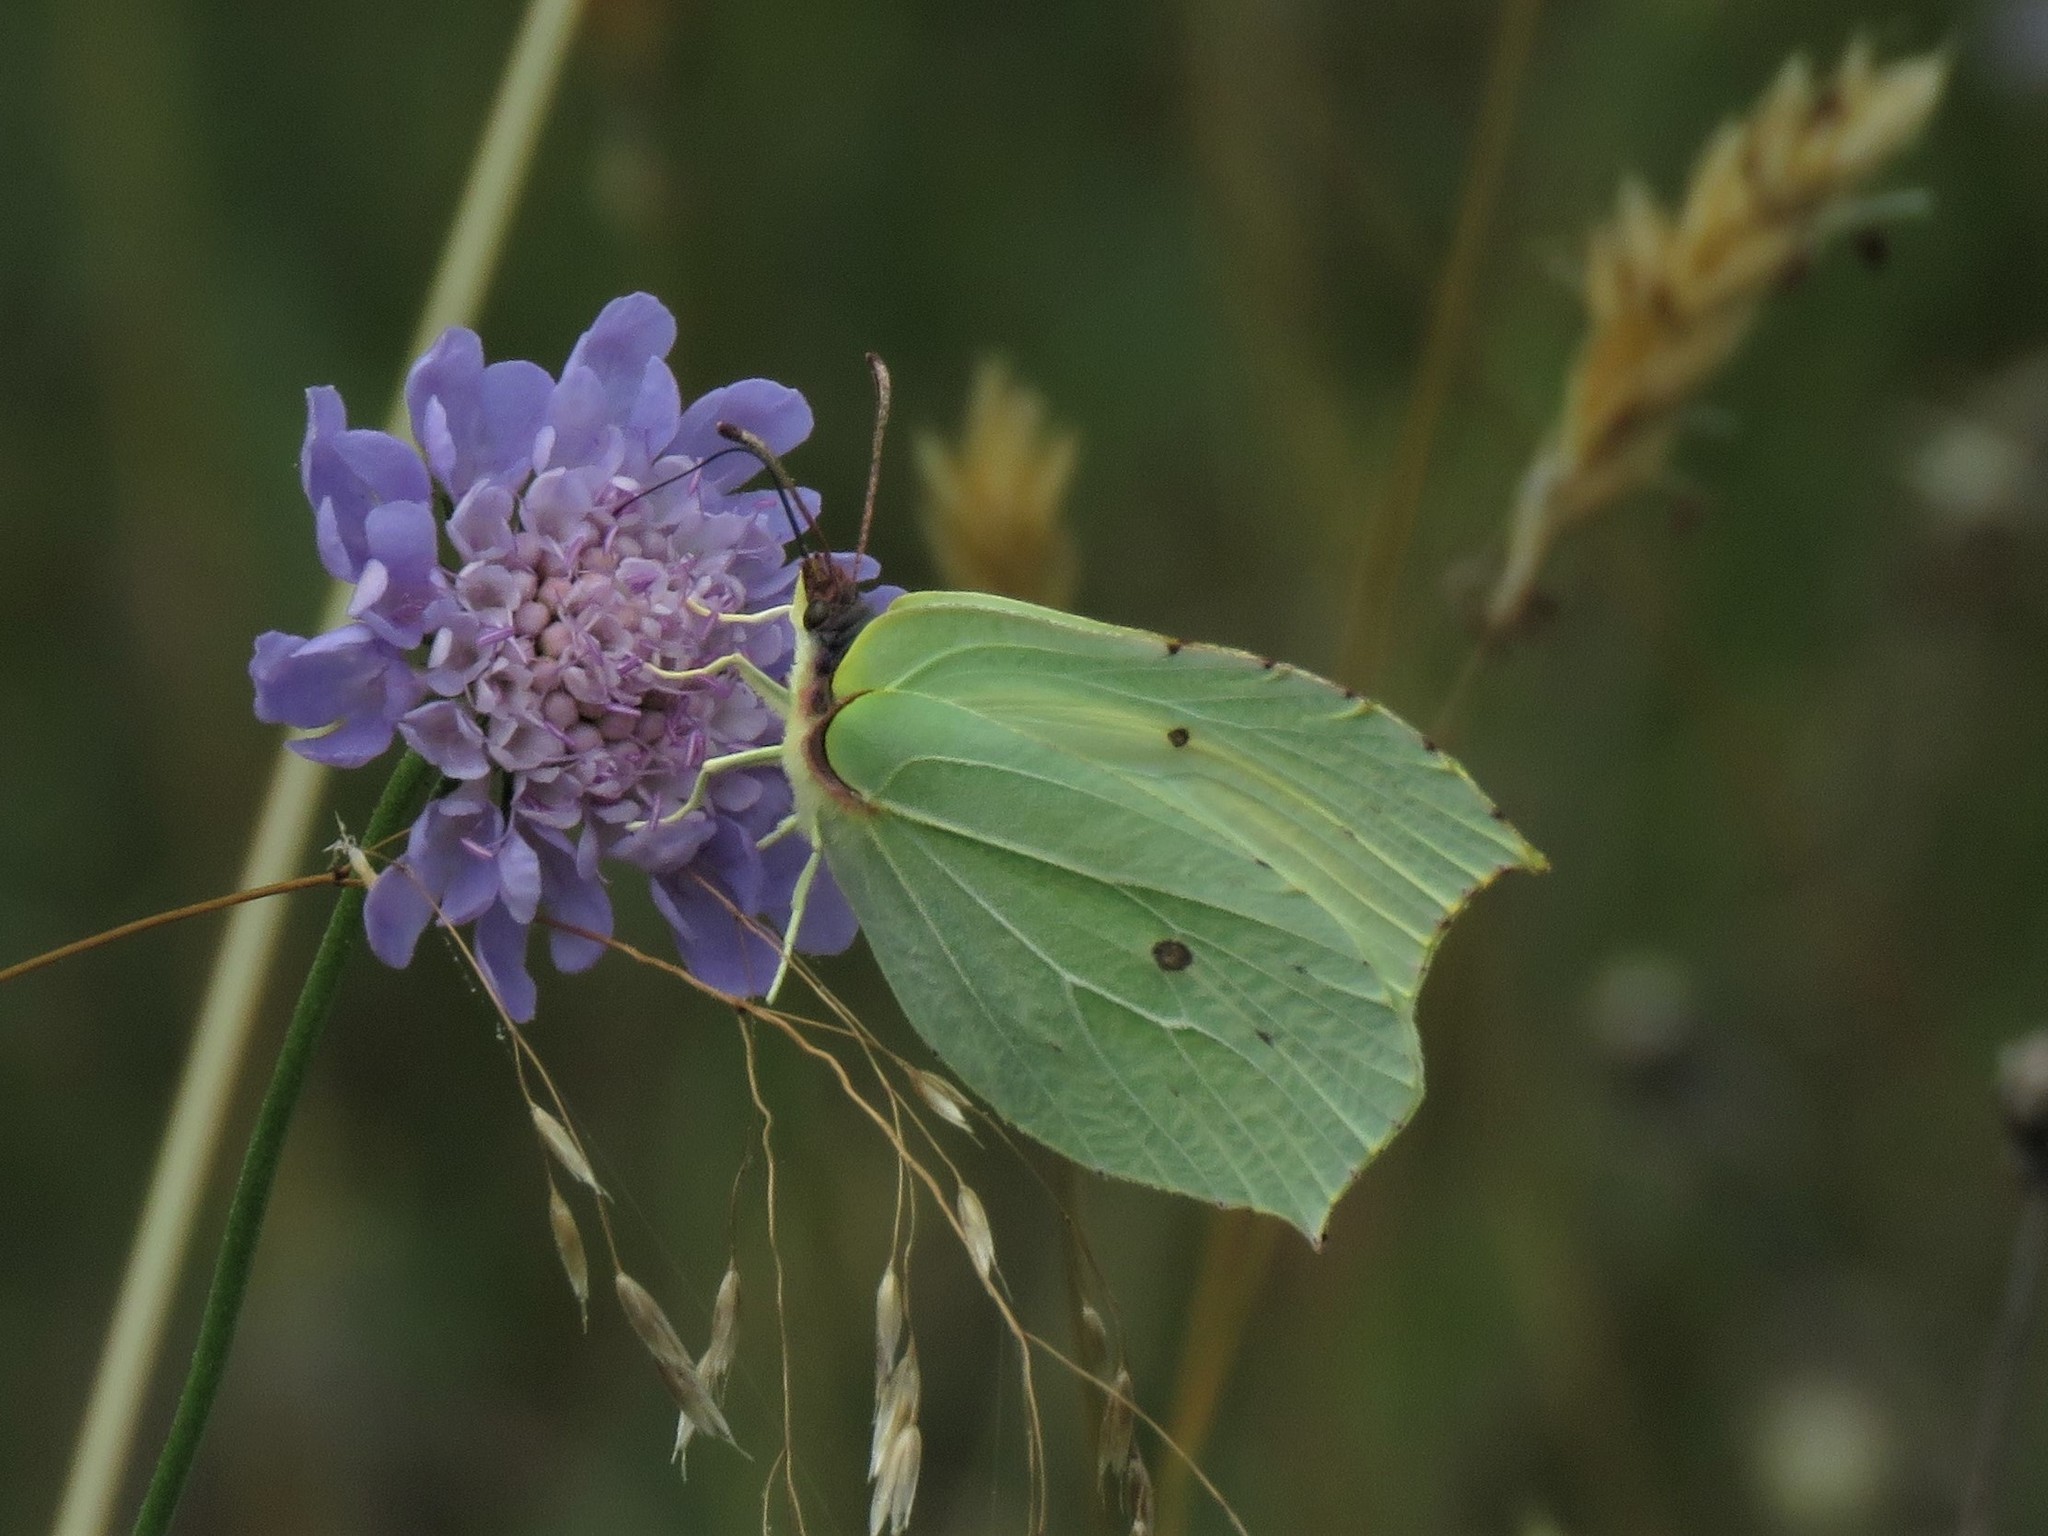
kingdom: Animalia
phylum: Arthropoda
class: Insecta
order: Lepidoptera
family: Pieridae
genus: Gonepteryx
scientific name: Gonepteryx rhamni
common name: Brimstone
